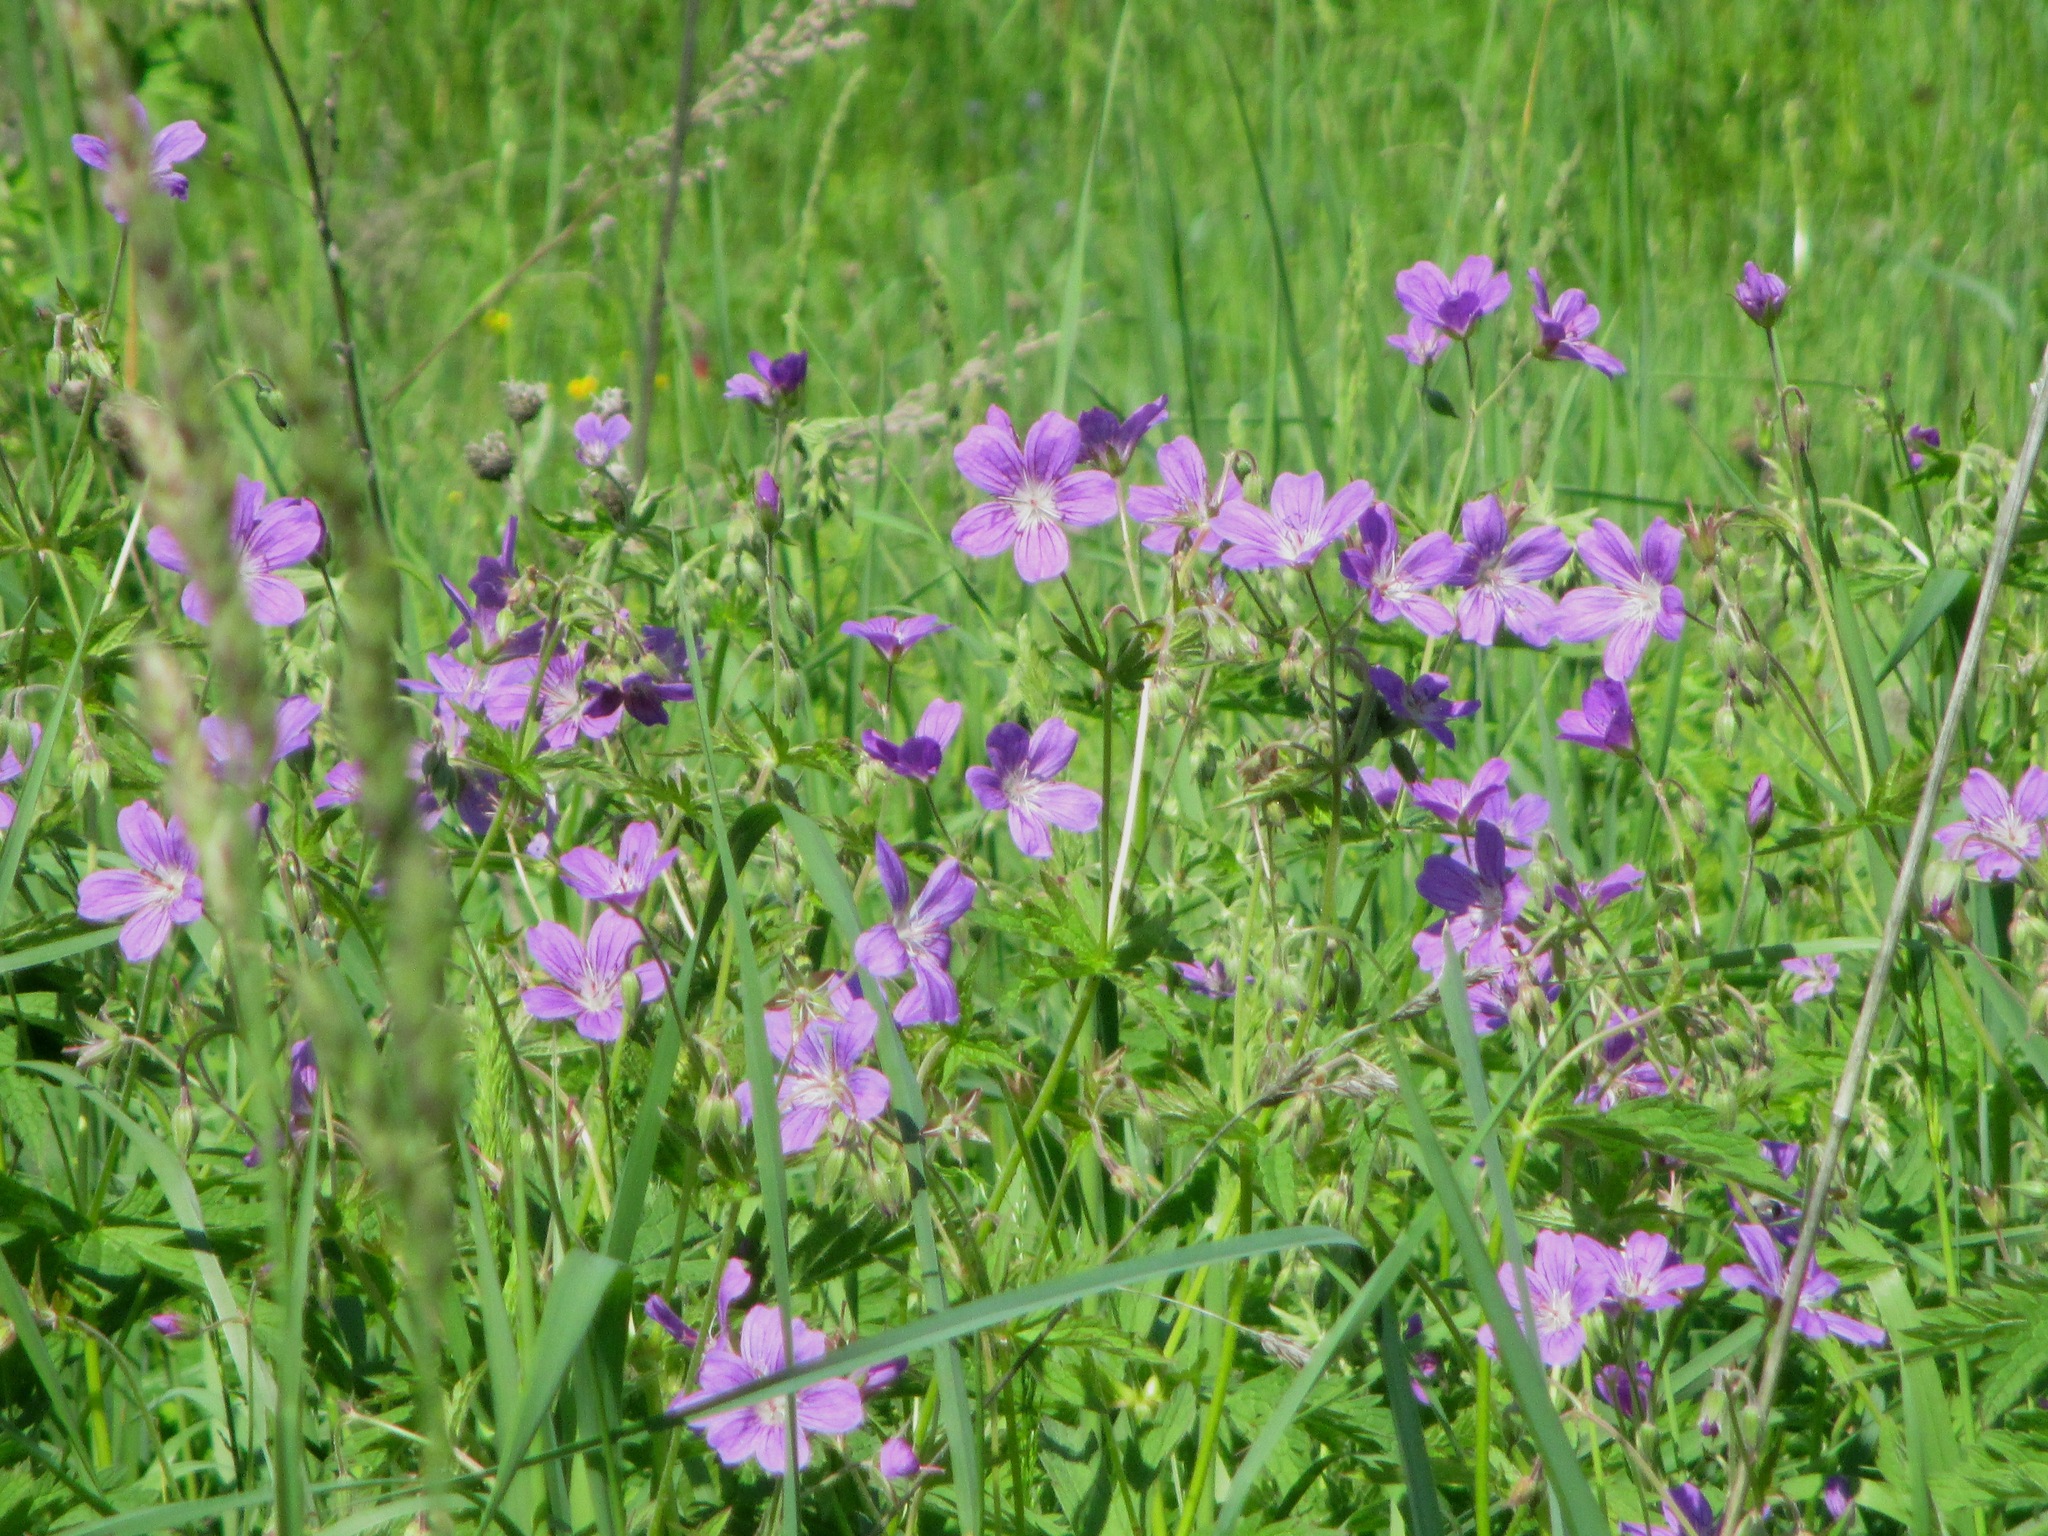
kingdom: Plantae
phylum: Tracheophyta
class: Magnoliopsida
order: Geraniales
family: Geraniaceae
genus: Geranium
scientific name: Geranium sylvaticum
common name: Wood crane's-bill
